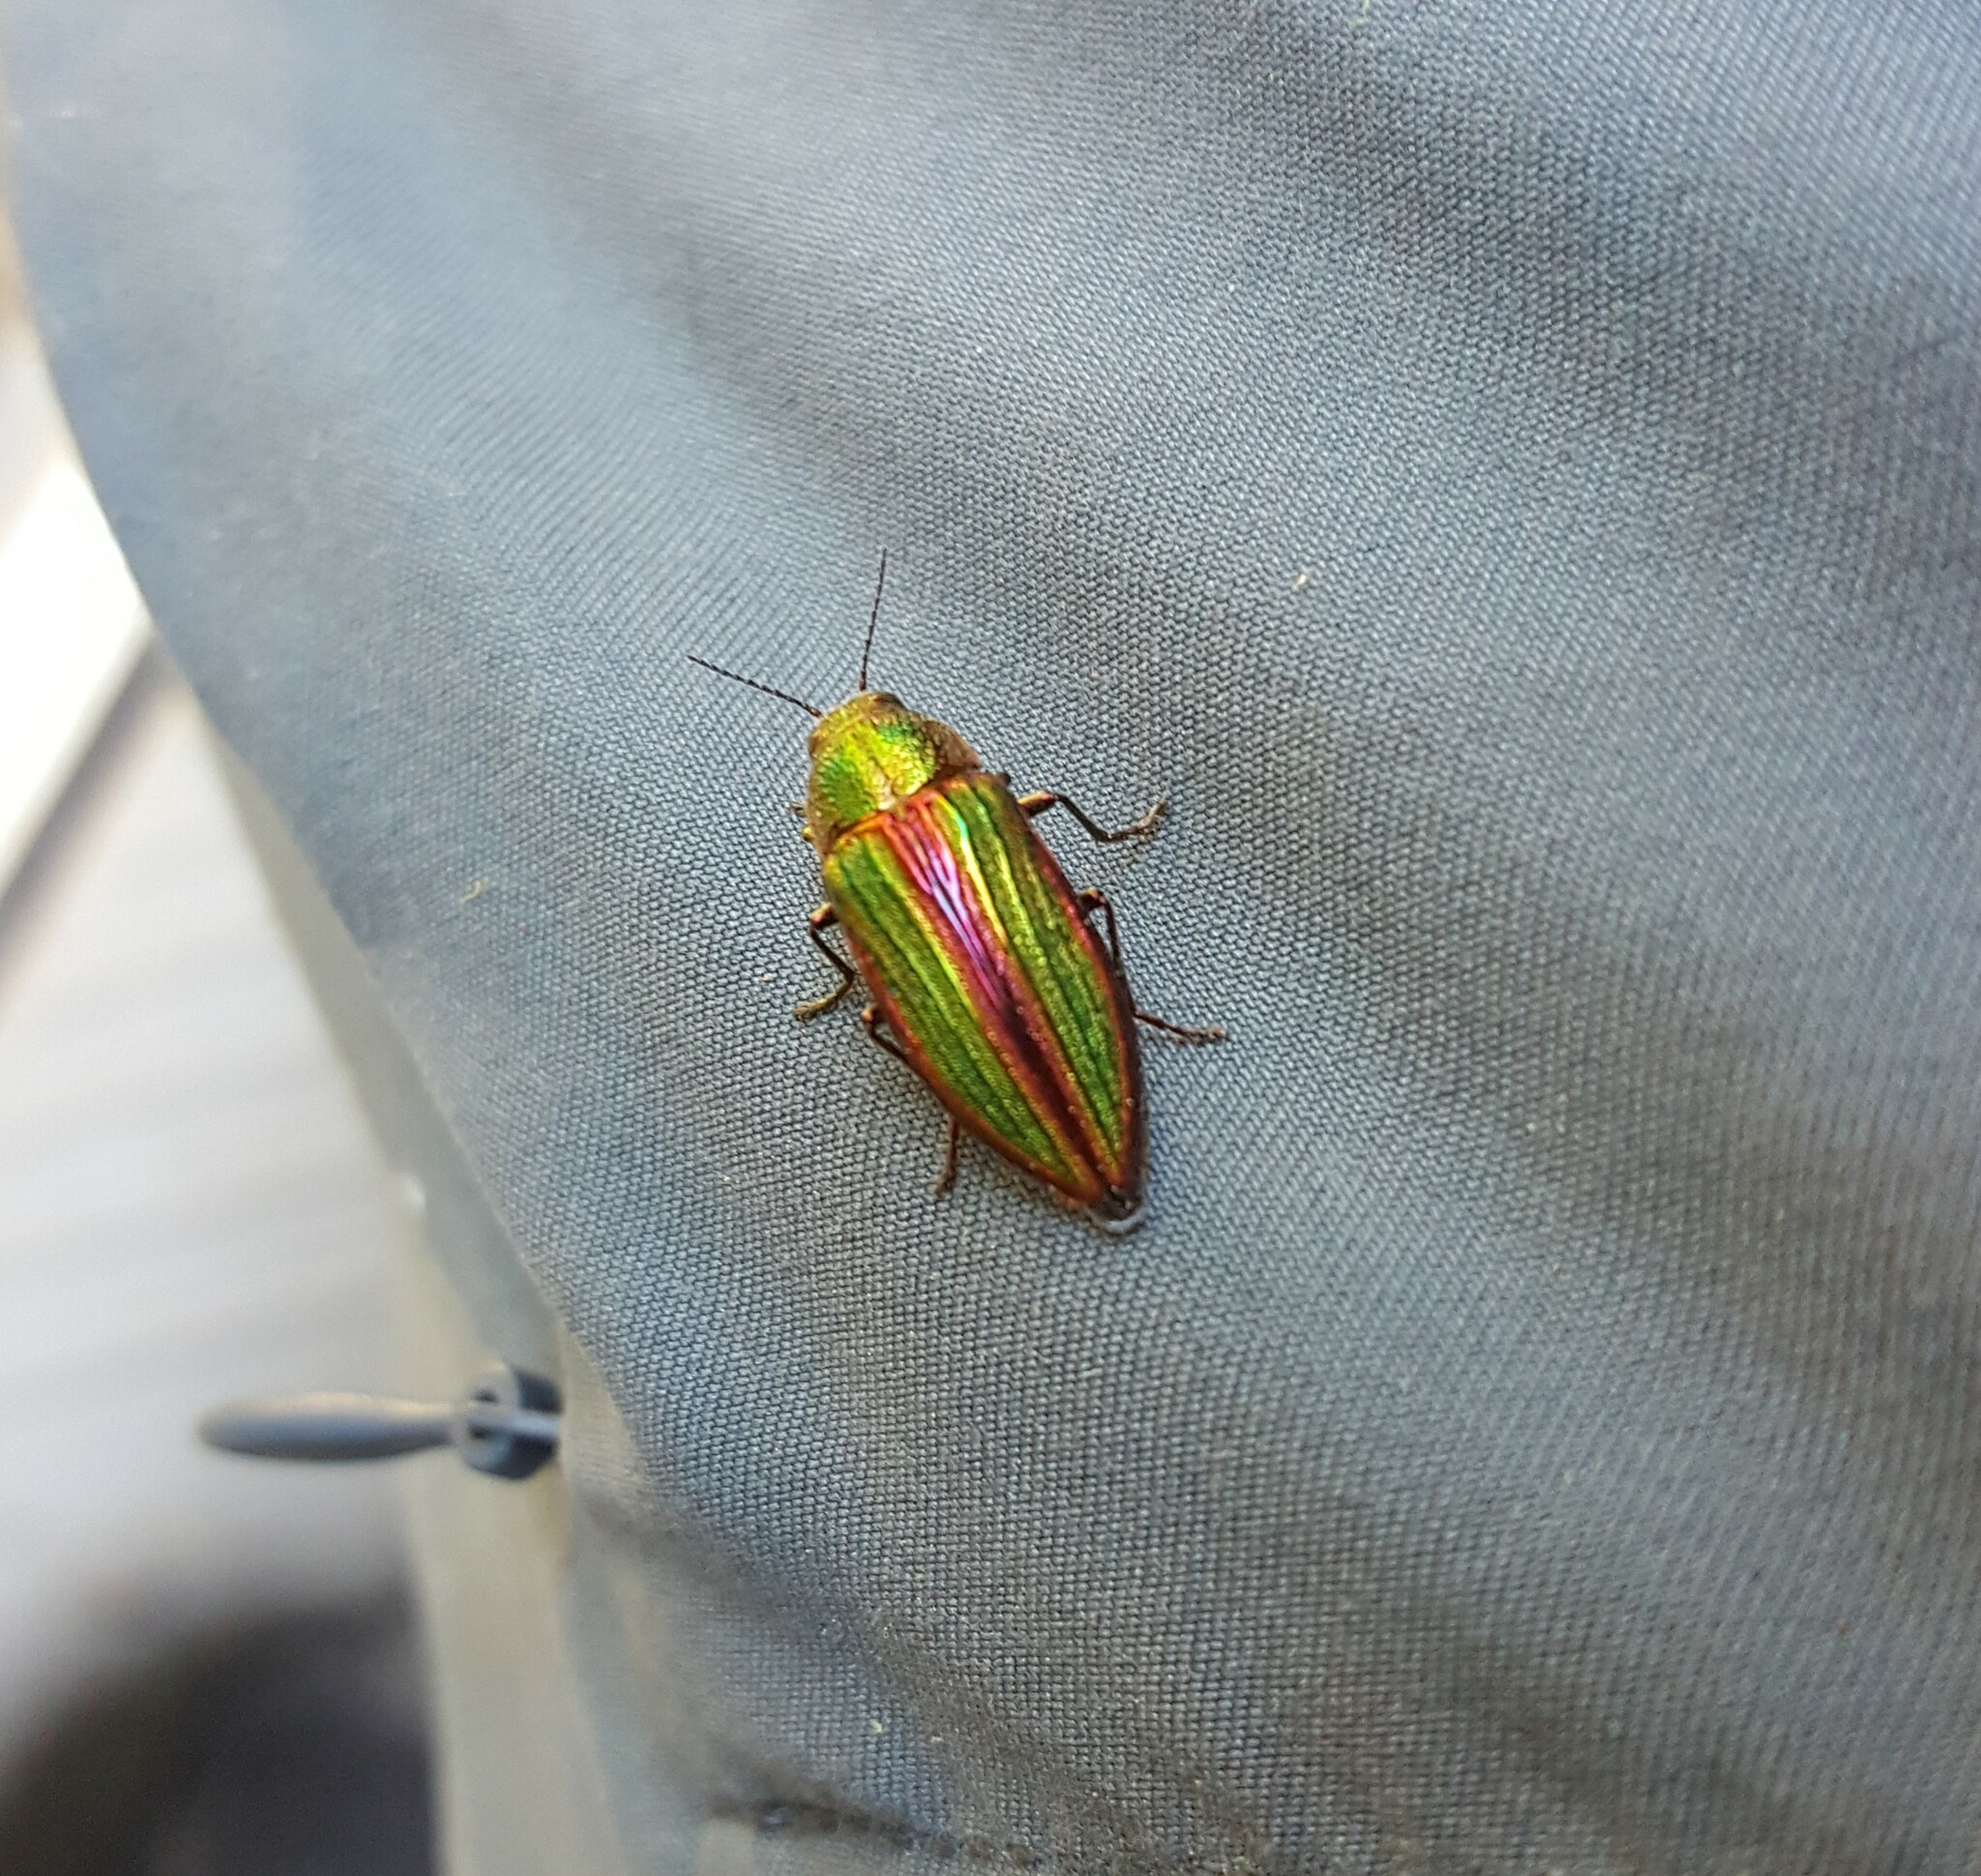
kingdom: Animalia
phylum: Arthropoda
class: Insecta
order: Coleoptera
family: Buprestidae
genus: Buprestis
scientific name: Buprestis aurulenta
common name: Golden buprestid
